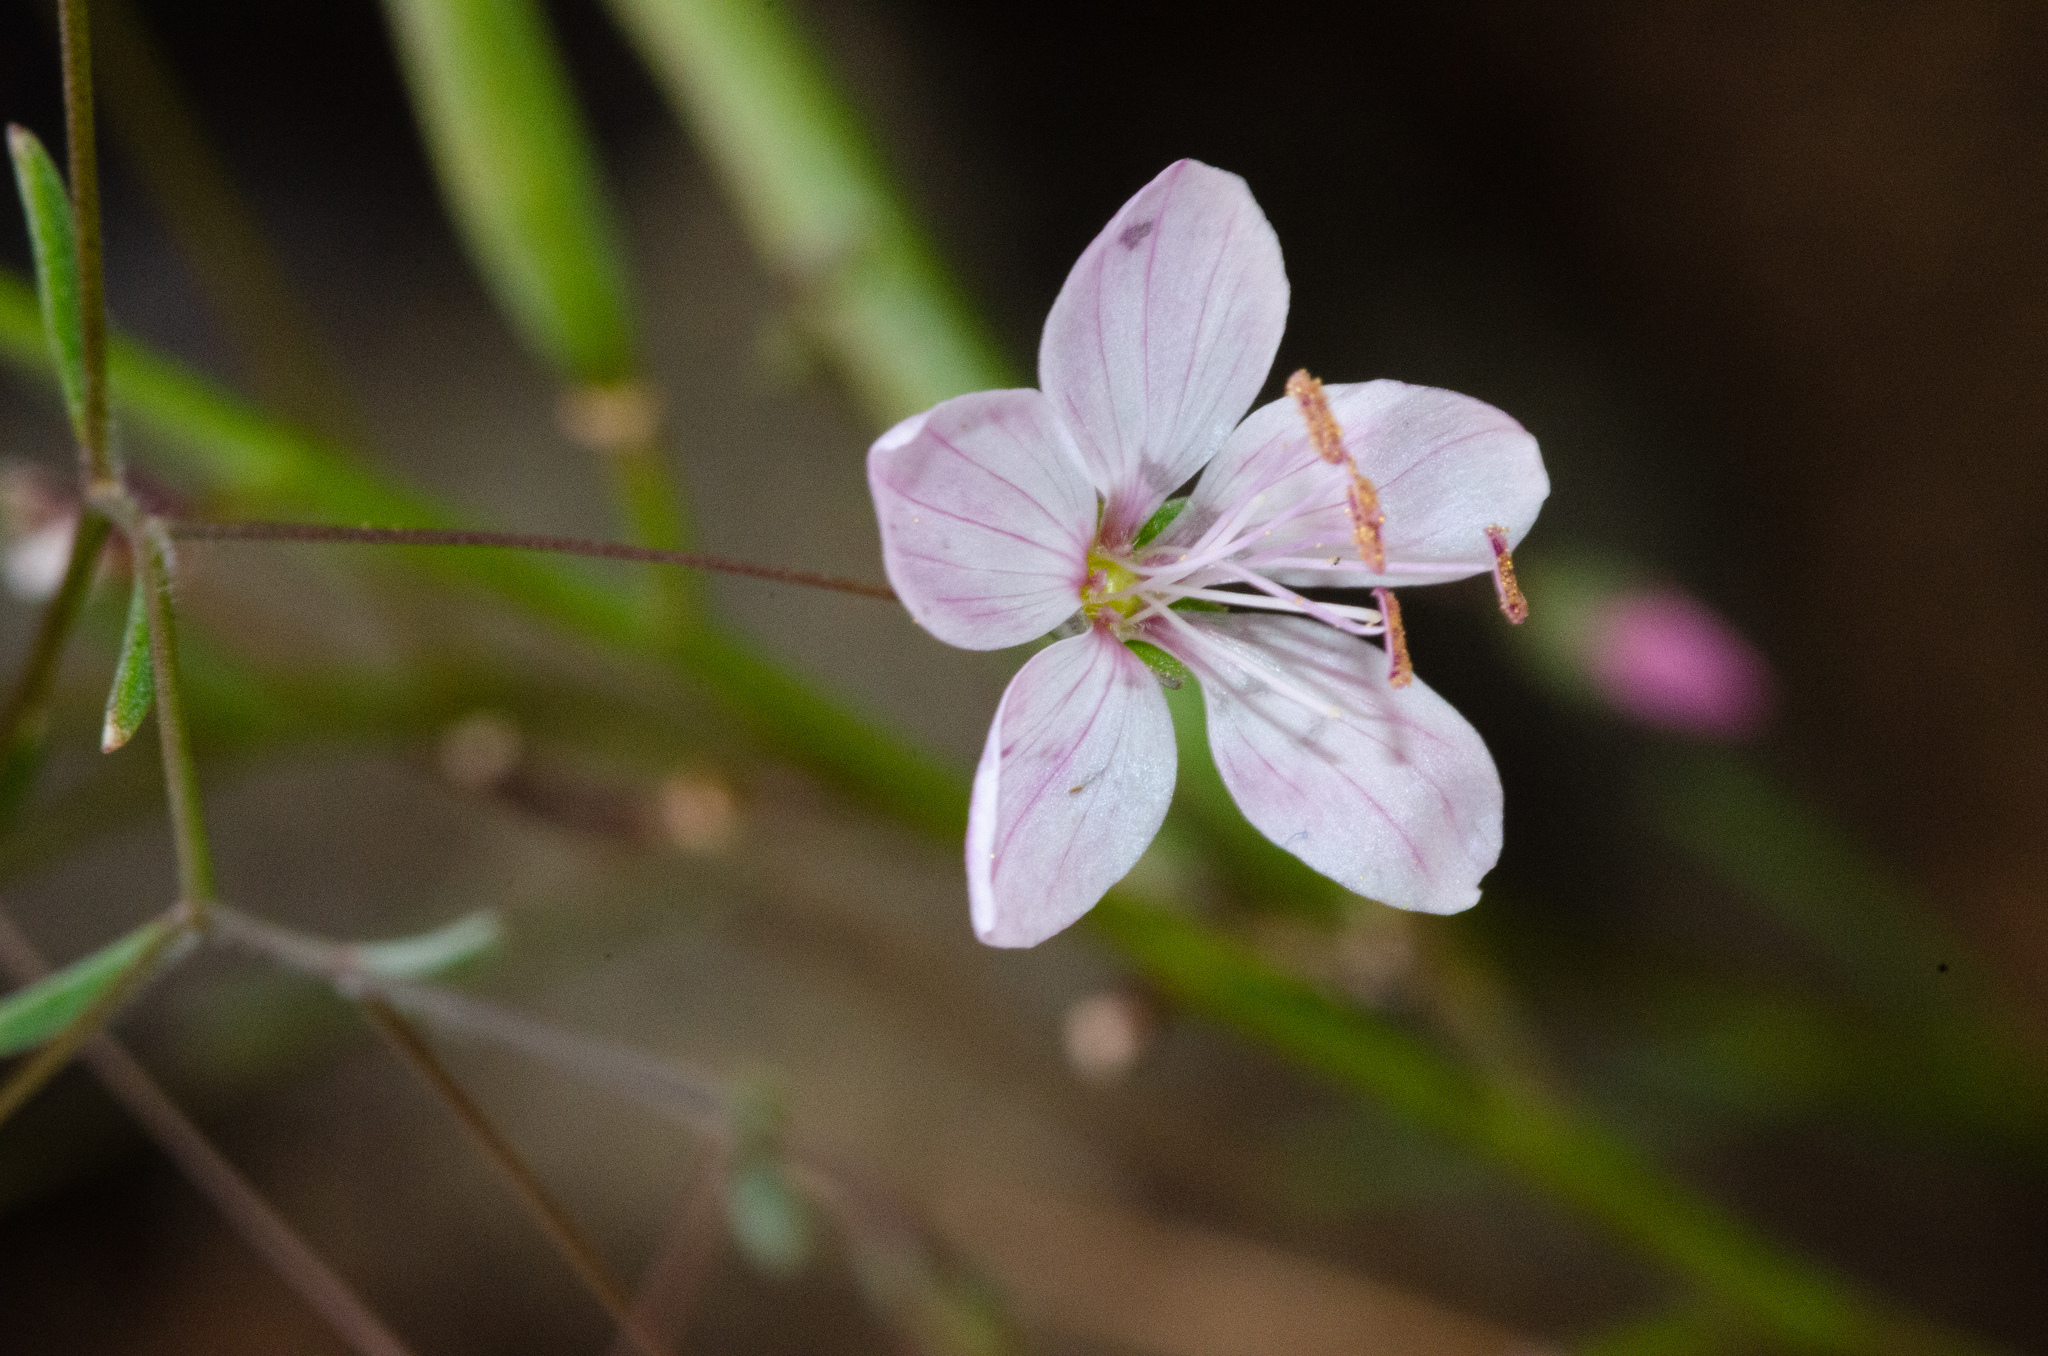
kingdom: Plantae
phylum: Tracheophyta
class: Magnoliopsida
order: Malpighiales
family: Linaceae
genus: Hesperolinon
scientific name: Hesperolinon micranthum
